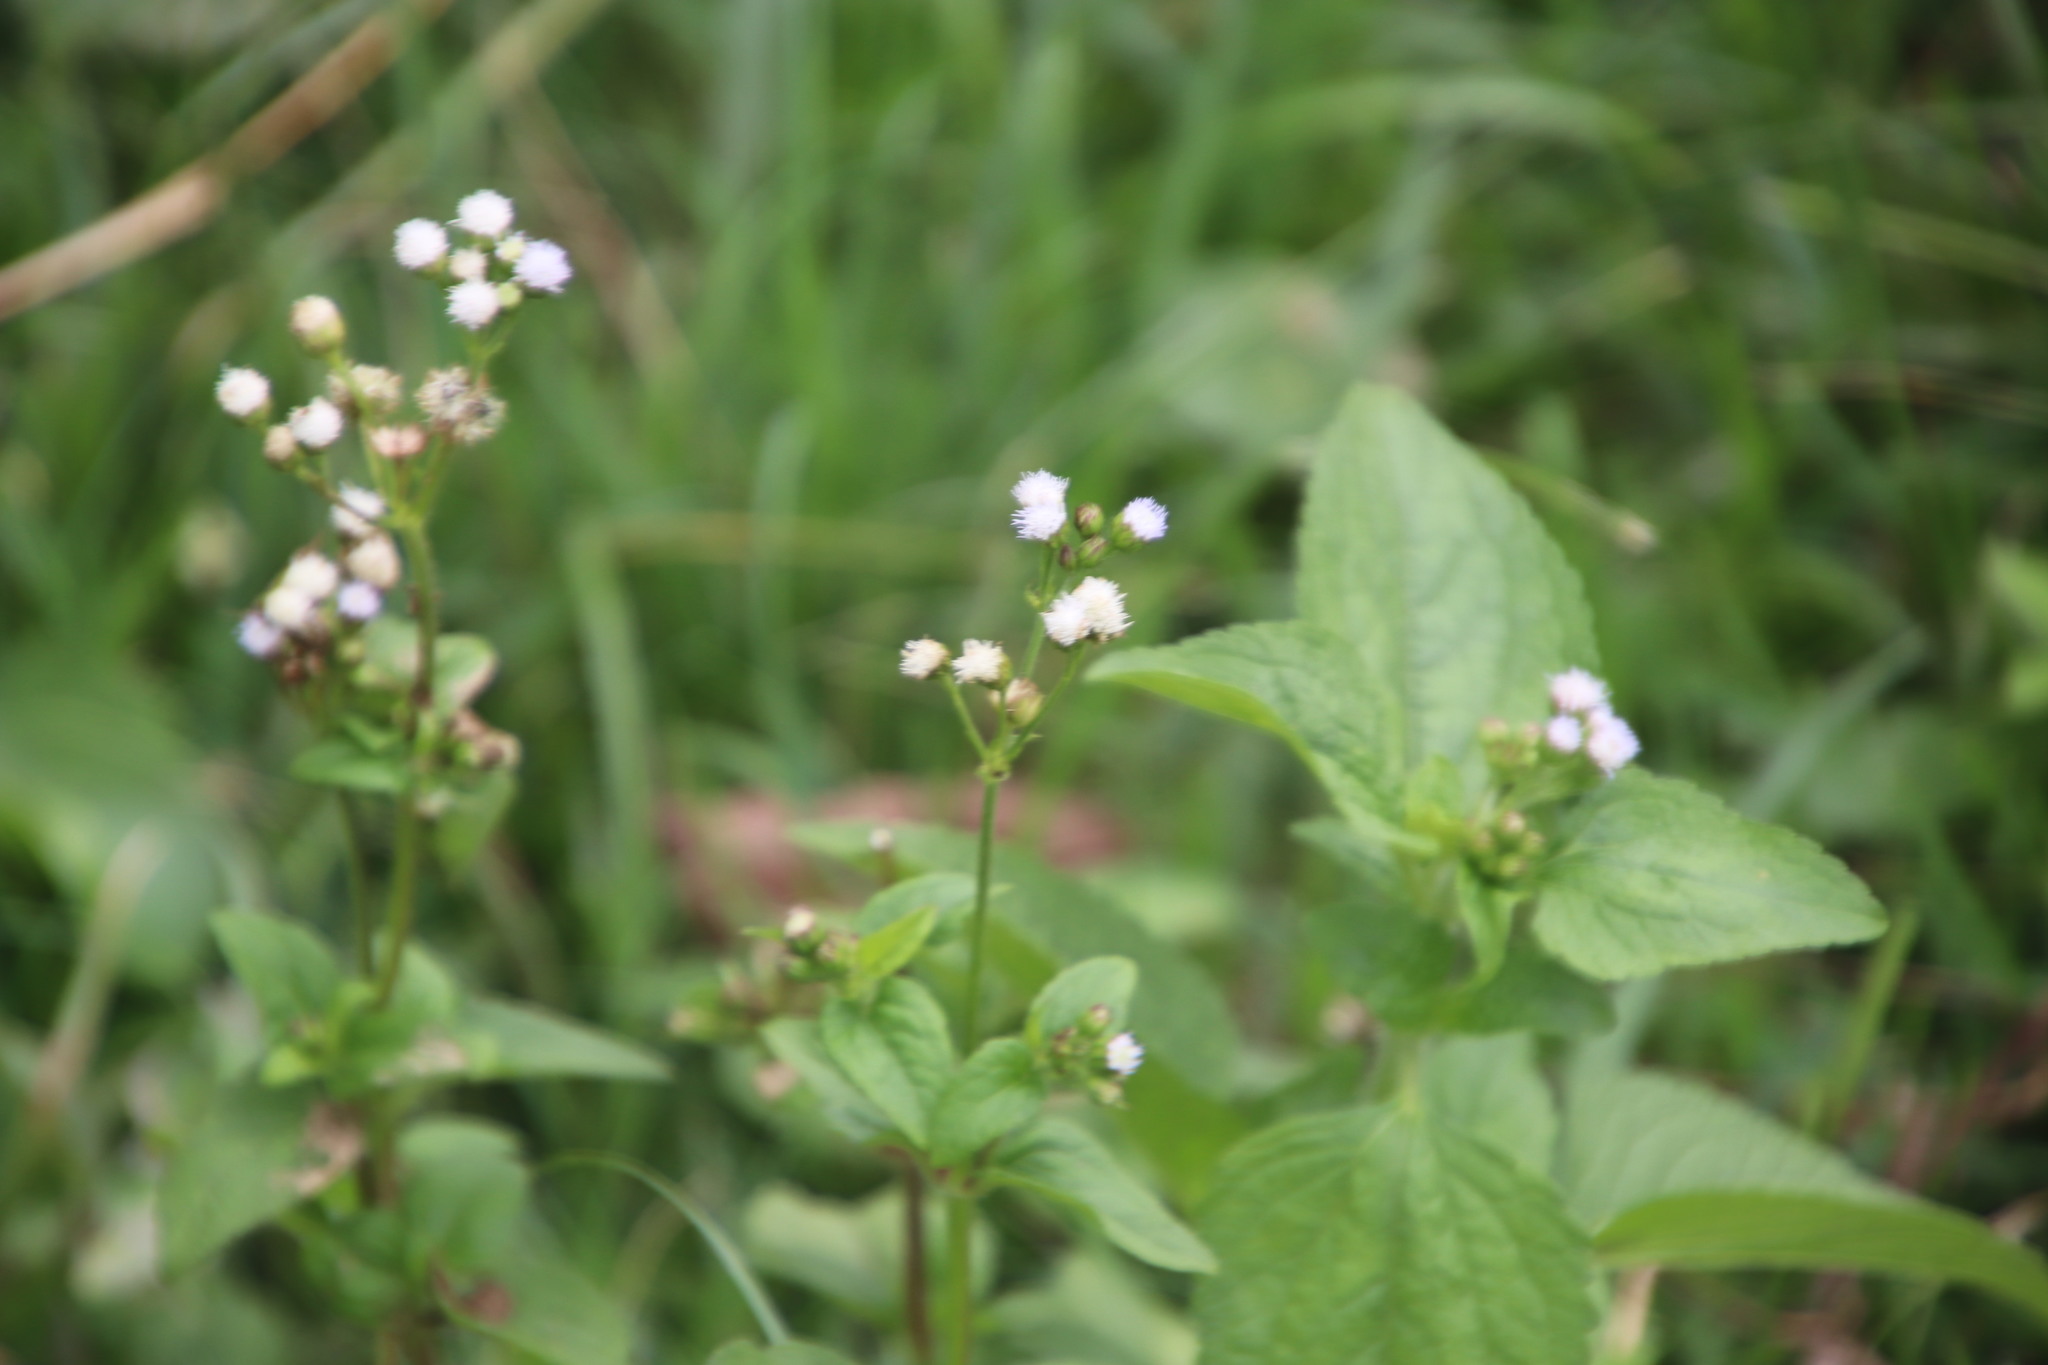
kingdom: Plantae
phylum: Tracheophyta
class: Magnoliopsida
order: Asterales
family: Asteraceae
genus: Ageratum
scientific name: Ageratum conyzoides
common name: Tropical whiteweed
